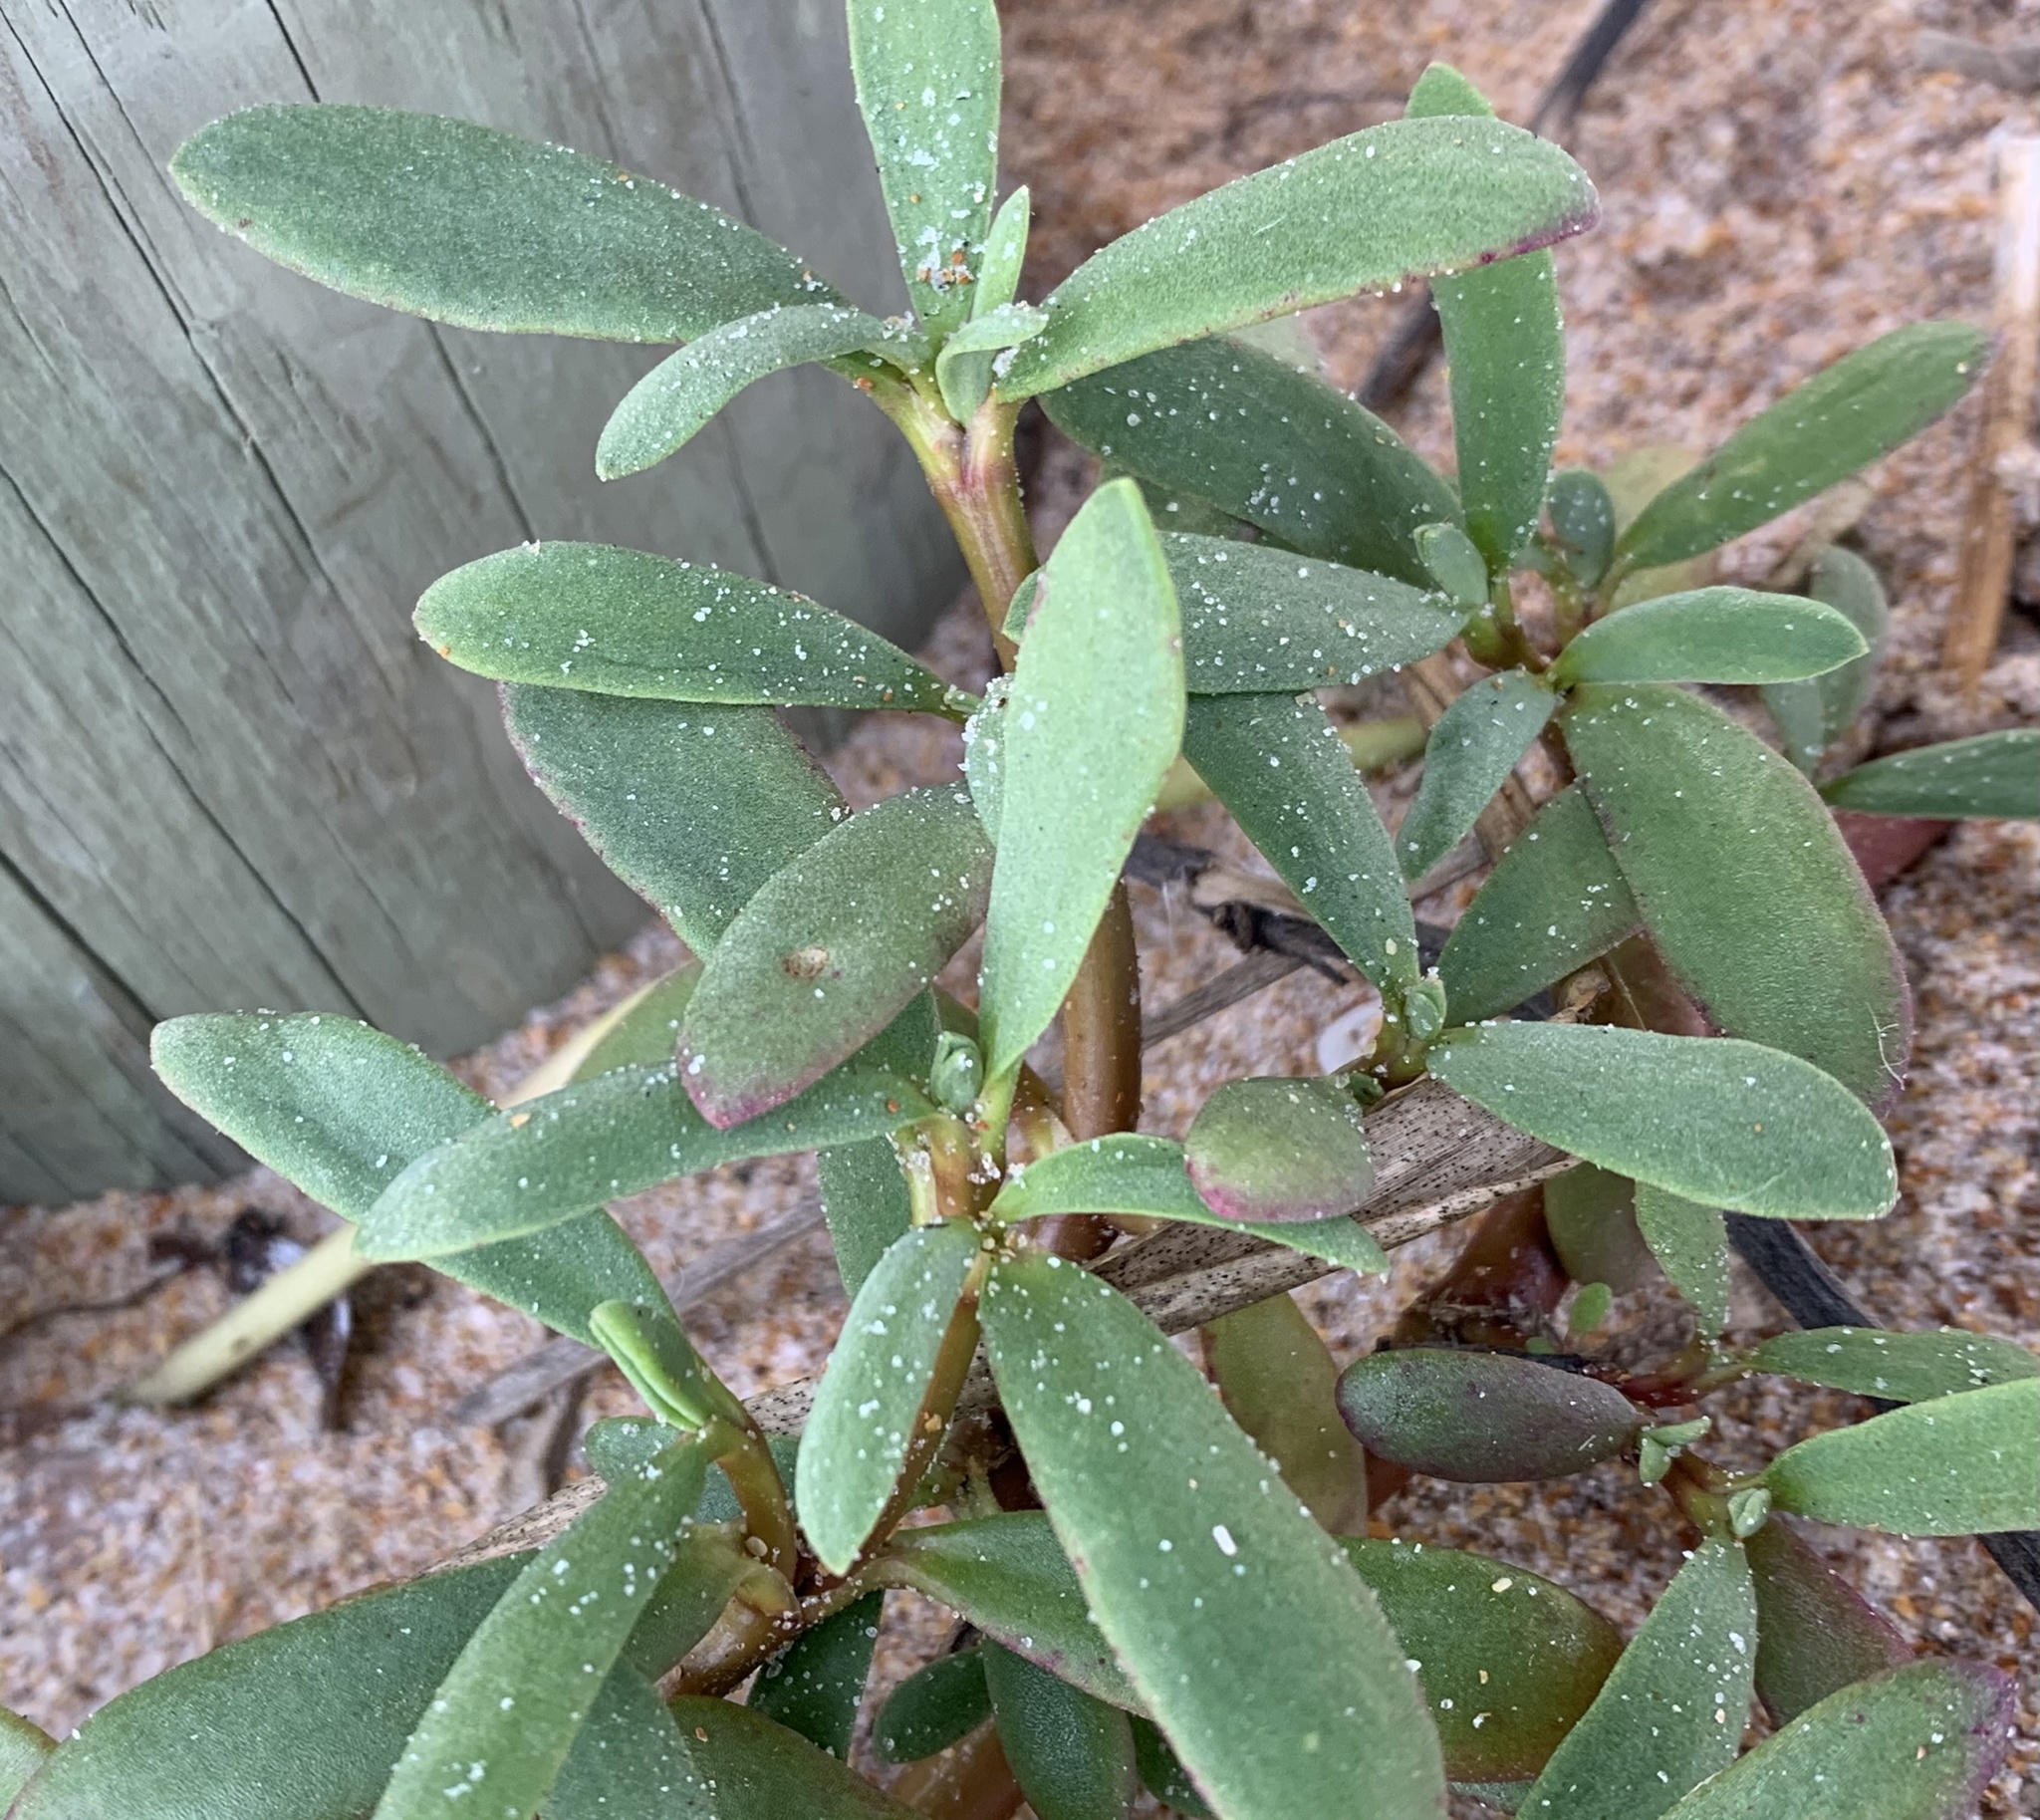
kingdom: Plantae
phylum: Tracheophyta
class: Magnoliopsida
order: Caryophyllales
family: Aizoaceae
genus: Sesuvium
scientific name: Sesuvium portulacastrum
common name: Sea-purslane
